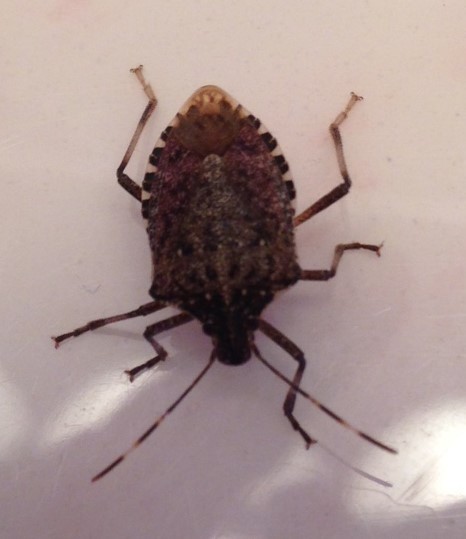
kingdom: Animalia
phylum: Arthropoda
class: Insecta
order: Hemiptera
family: Pentatomidae
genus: Halyomorpha
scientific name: Halyomorpha halys
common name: Brown marmorated stink bug
